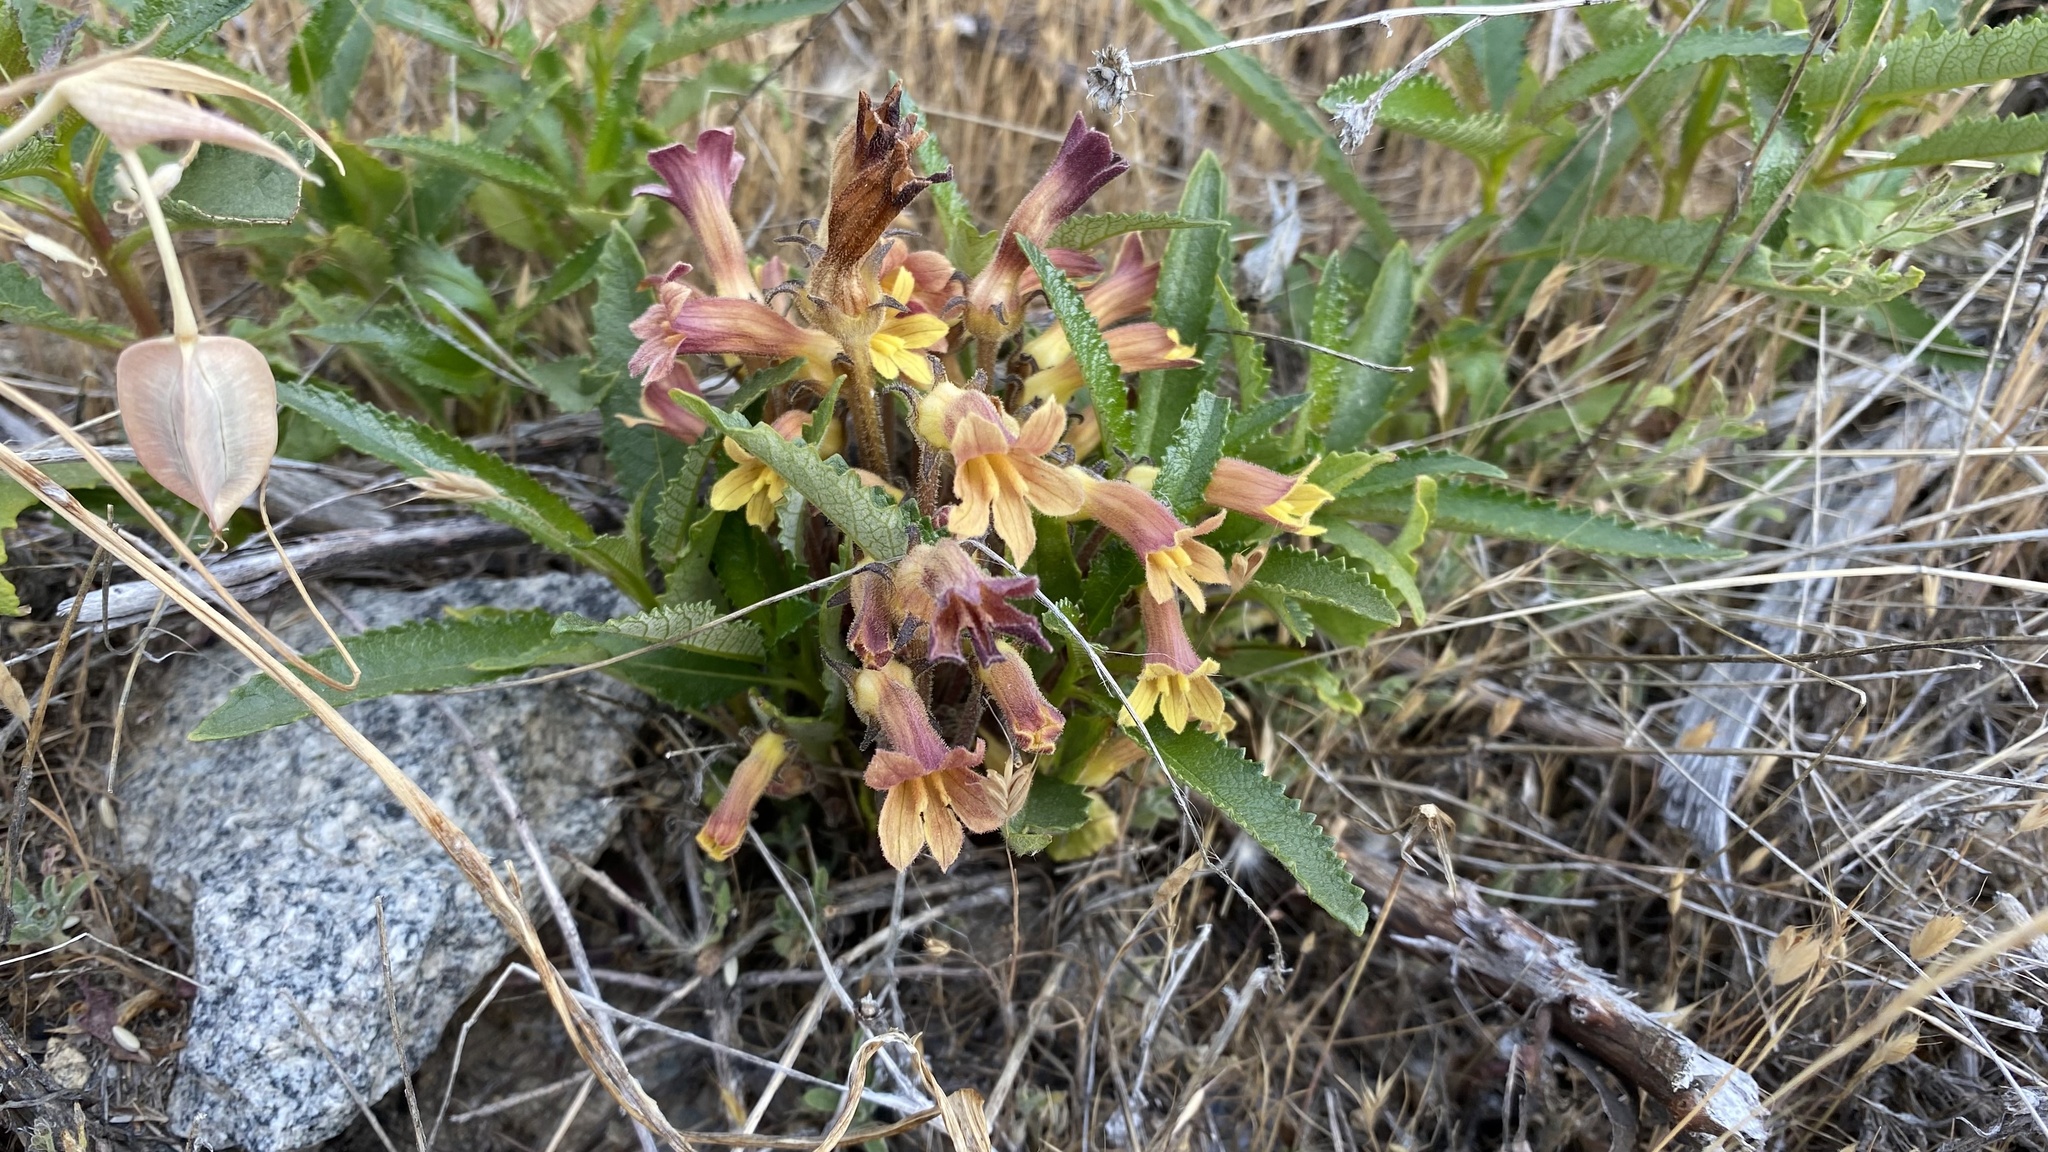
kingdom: Plantae
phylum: Tracheophyta
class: Magnoliopsida
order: Lamiales
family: Orobanchaceae
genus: Aphyllon
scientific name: Aphyllon franciscanum
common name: San francisco broomrape
